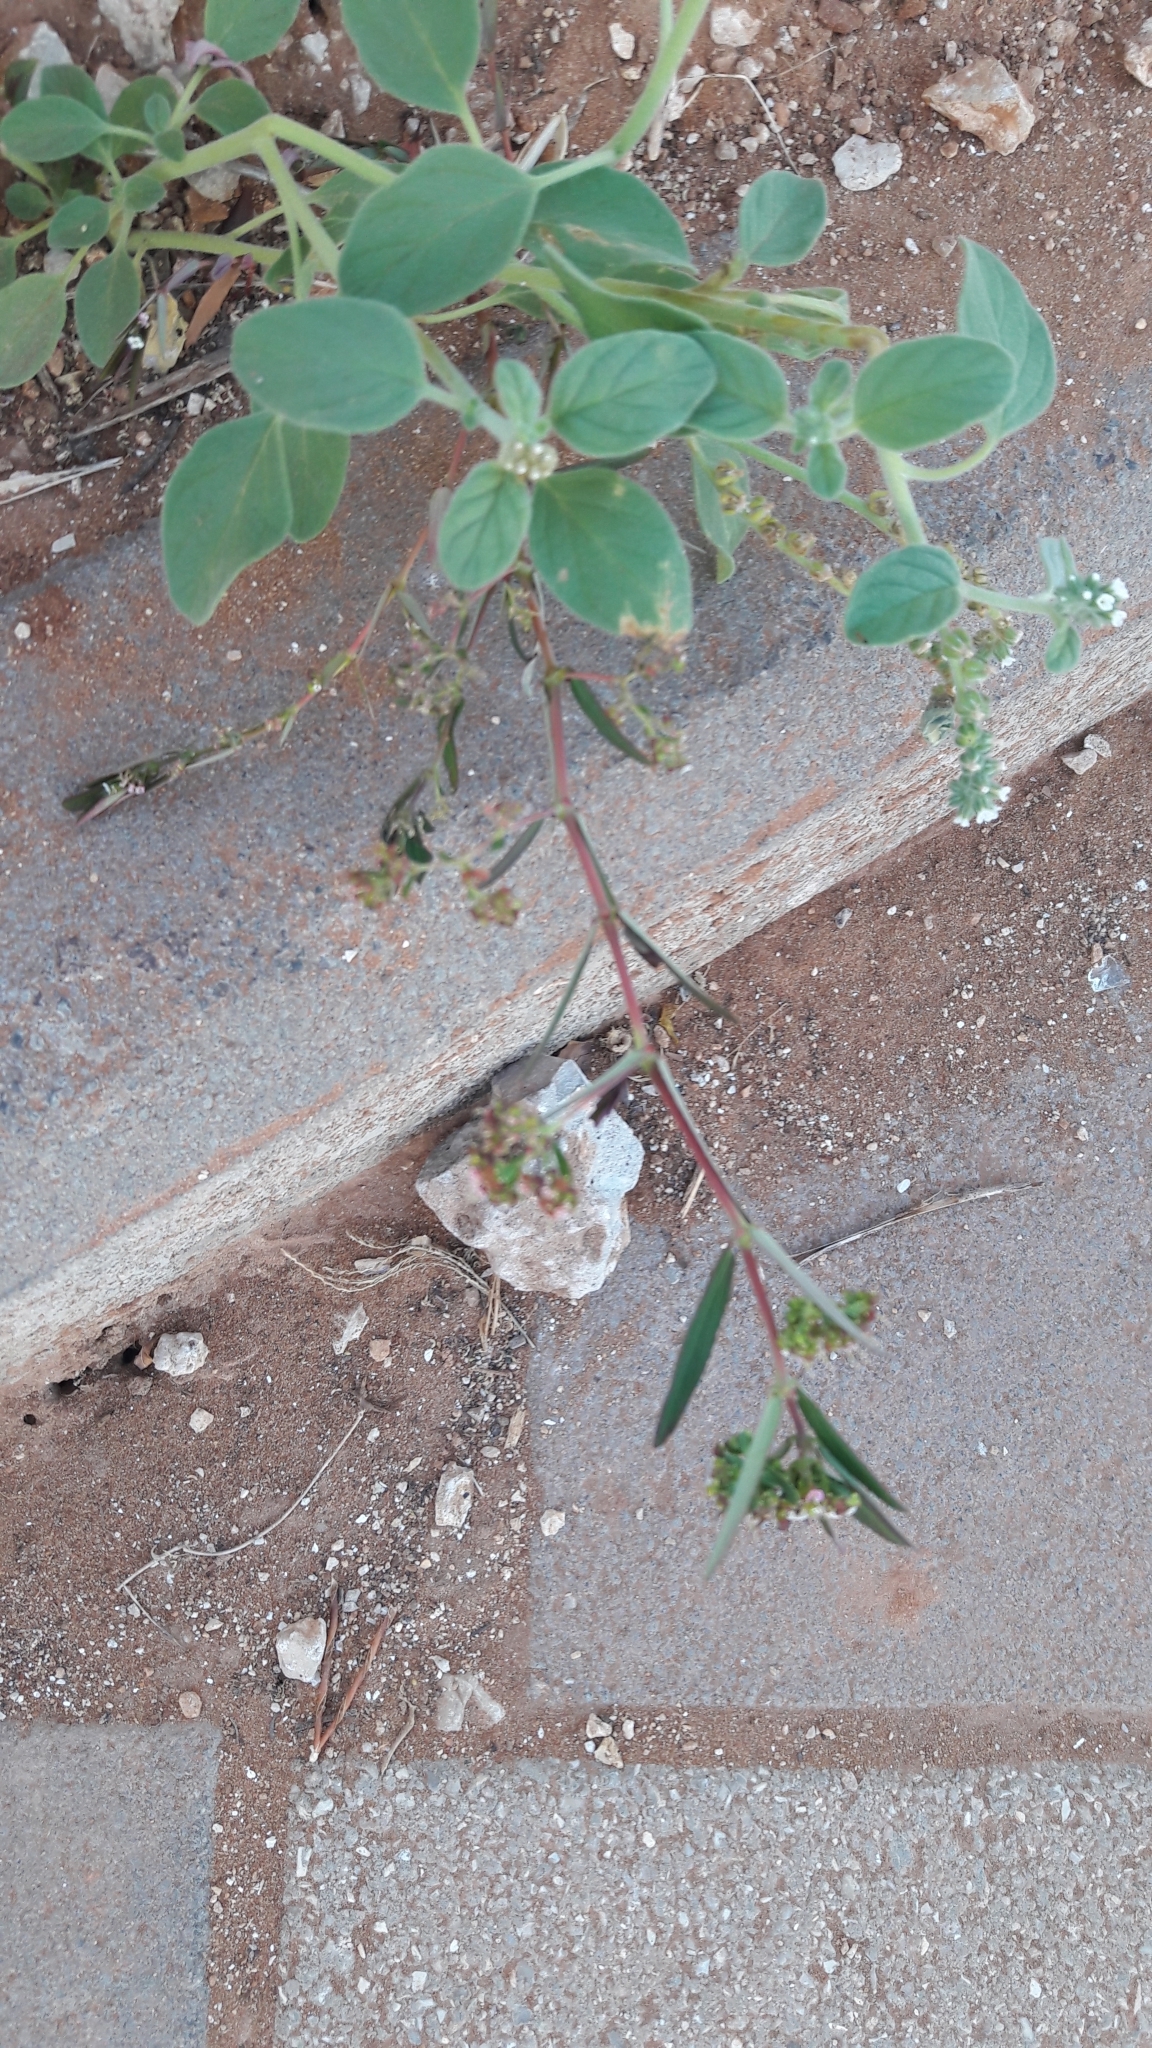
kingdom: Plantae
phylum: Tracheophyta
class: Magnoliopsida
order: Malpighiales
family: Euphorbiaceae
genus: Euphorbia
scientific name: Euphorbia hypericifolia
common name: Graceful sandmat
